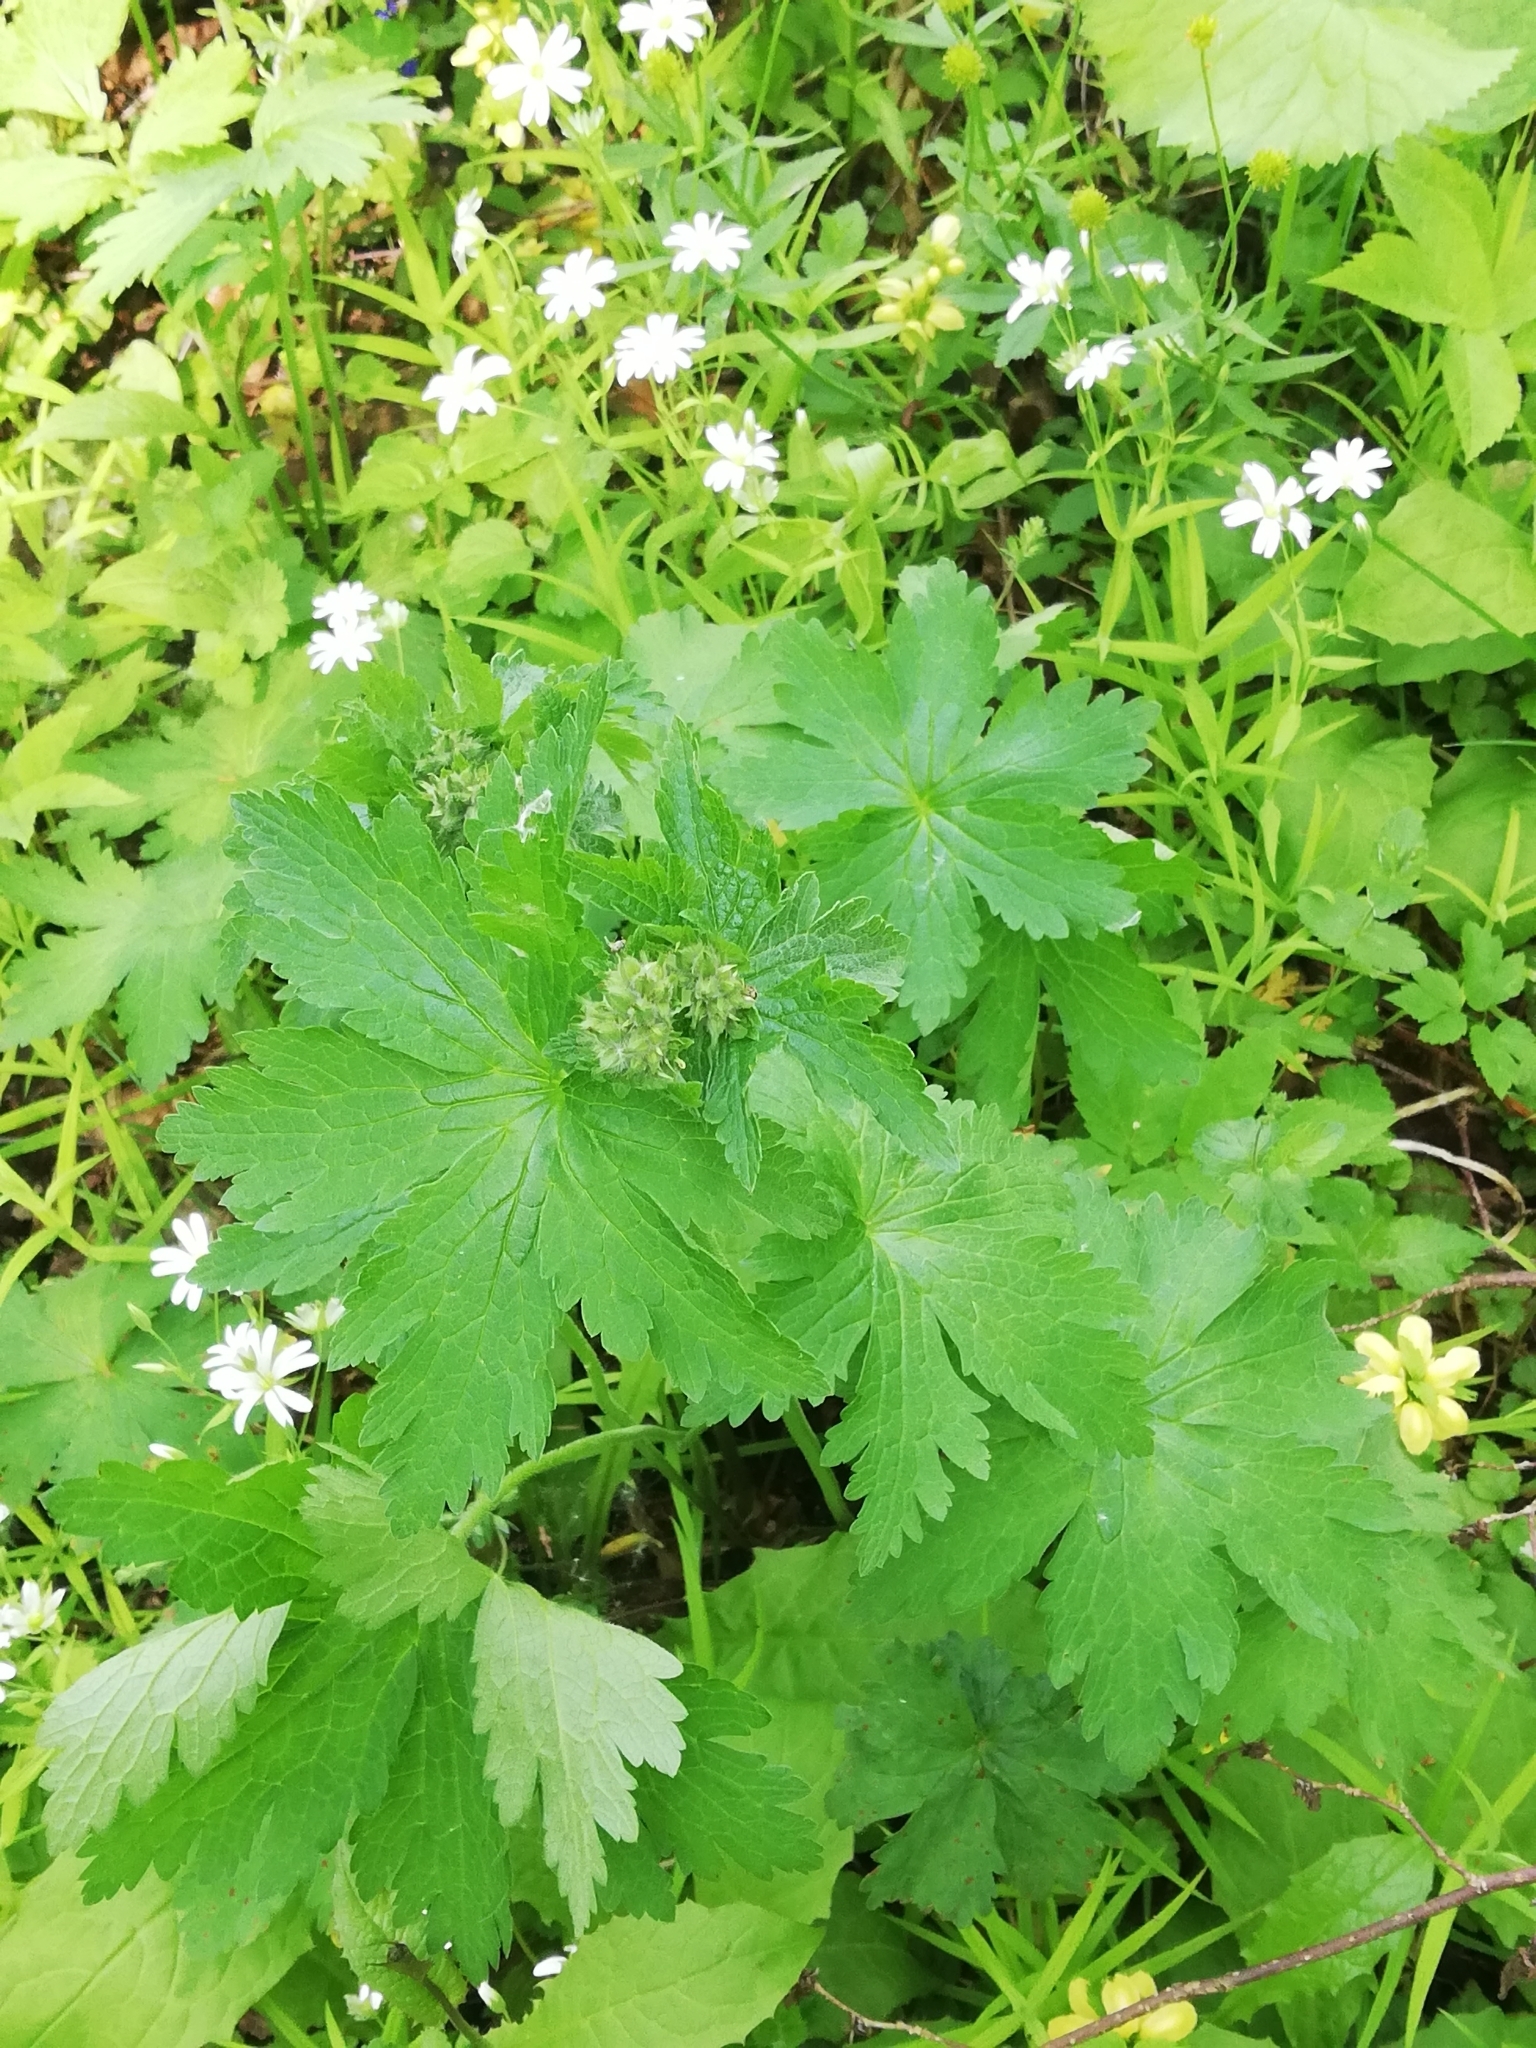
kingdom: Plantae
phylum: Tracheophyta
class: Magnoliopsida
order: Geraniales
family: Geraniaceae
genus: Geranium
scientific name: Geranium sylvaticum
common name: Wood crane's-bill
